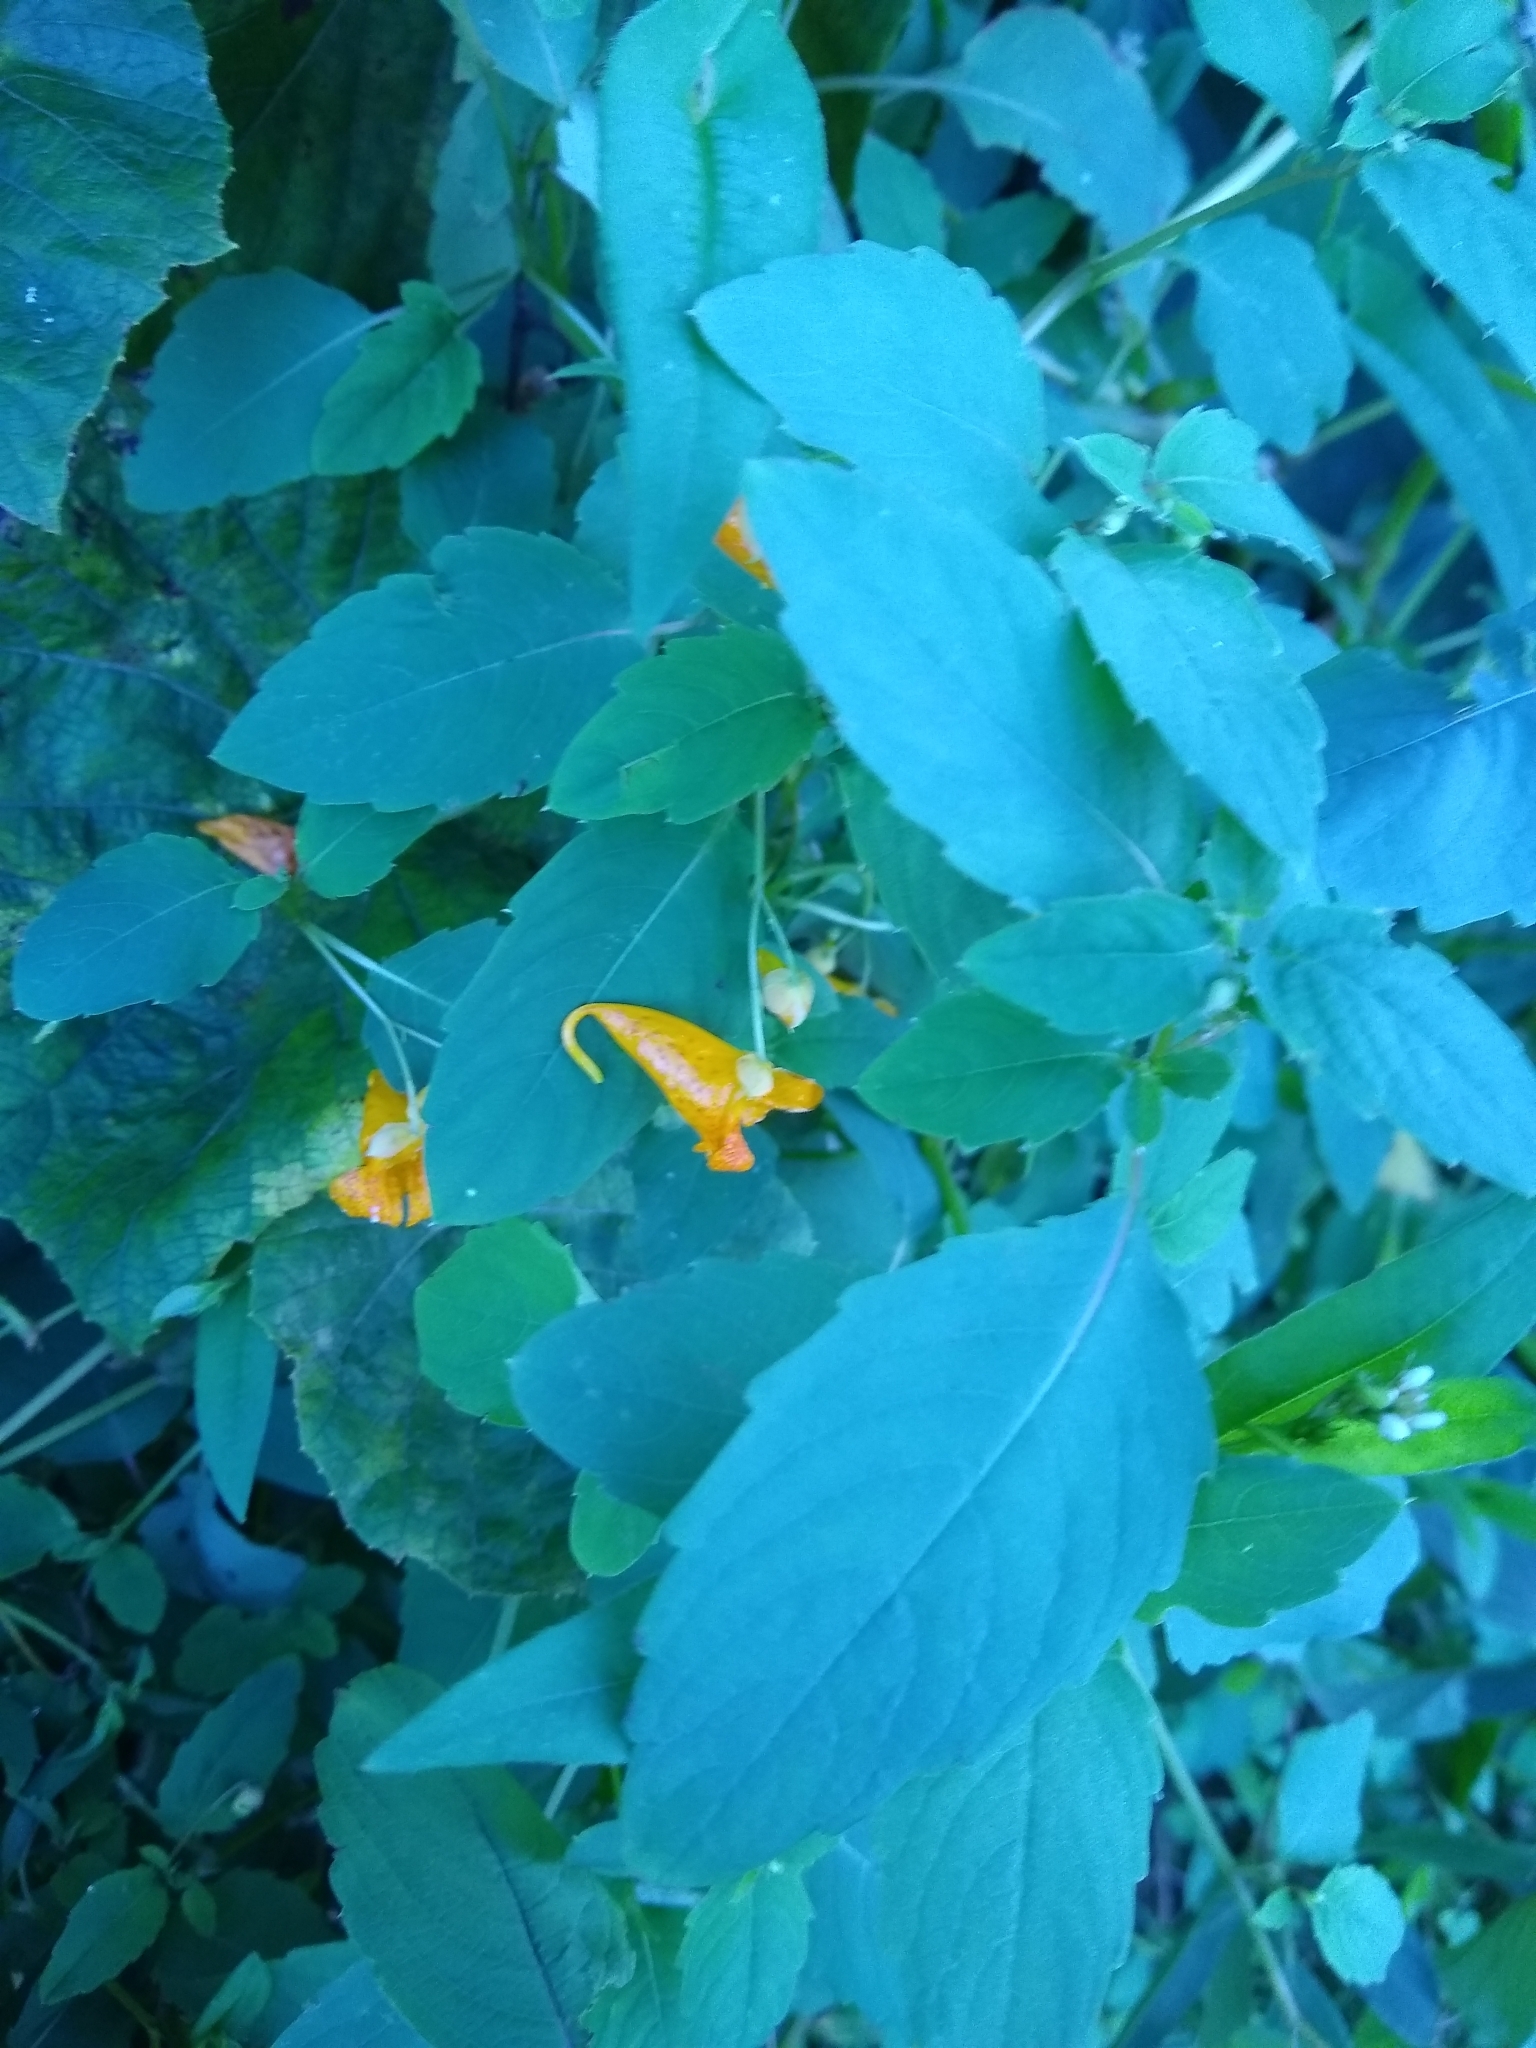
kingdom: Plantae
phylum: Tracheophyta
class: Magnoliopsida
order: Ericales
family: Balsaminaceae
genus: Impatiens
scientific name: Impatiens capensis
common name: Orange balsam
